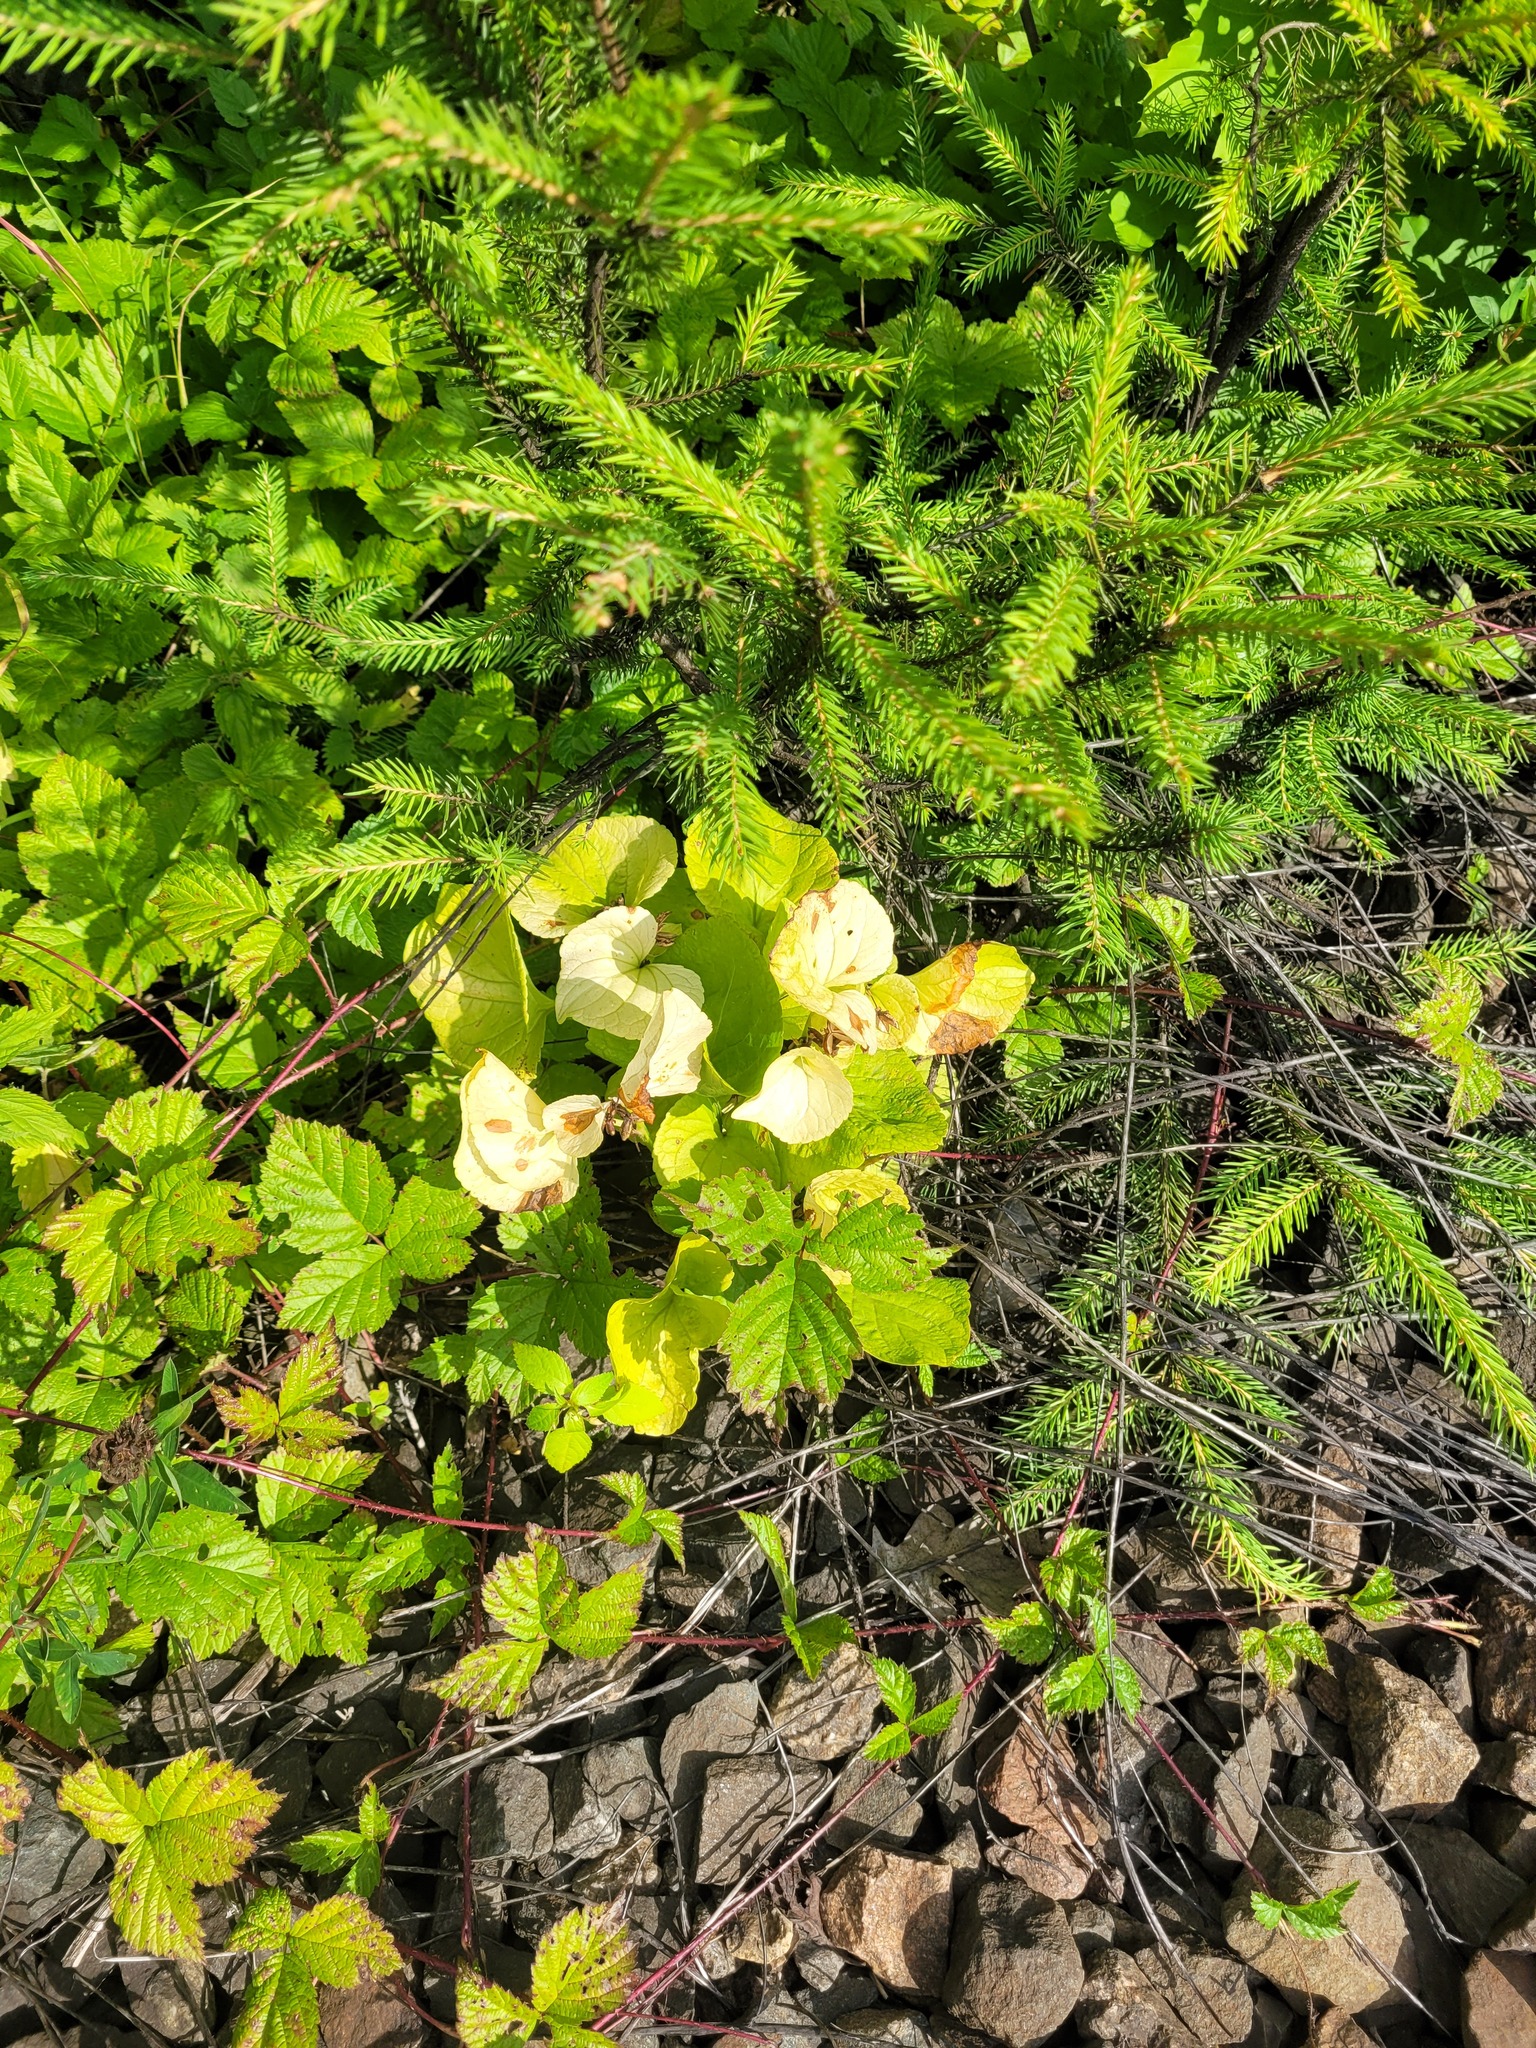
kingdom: Plantae
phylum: Tracheophyta
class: Magnoliopsida
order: Malpighiales
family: Violaceae
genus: Viola
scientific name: Viola mirabilis
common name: Wonder violet
